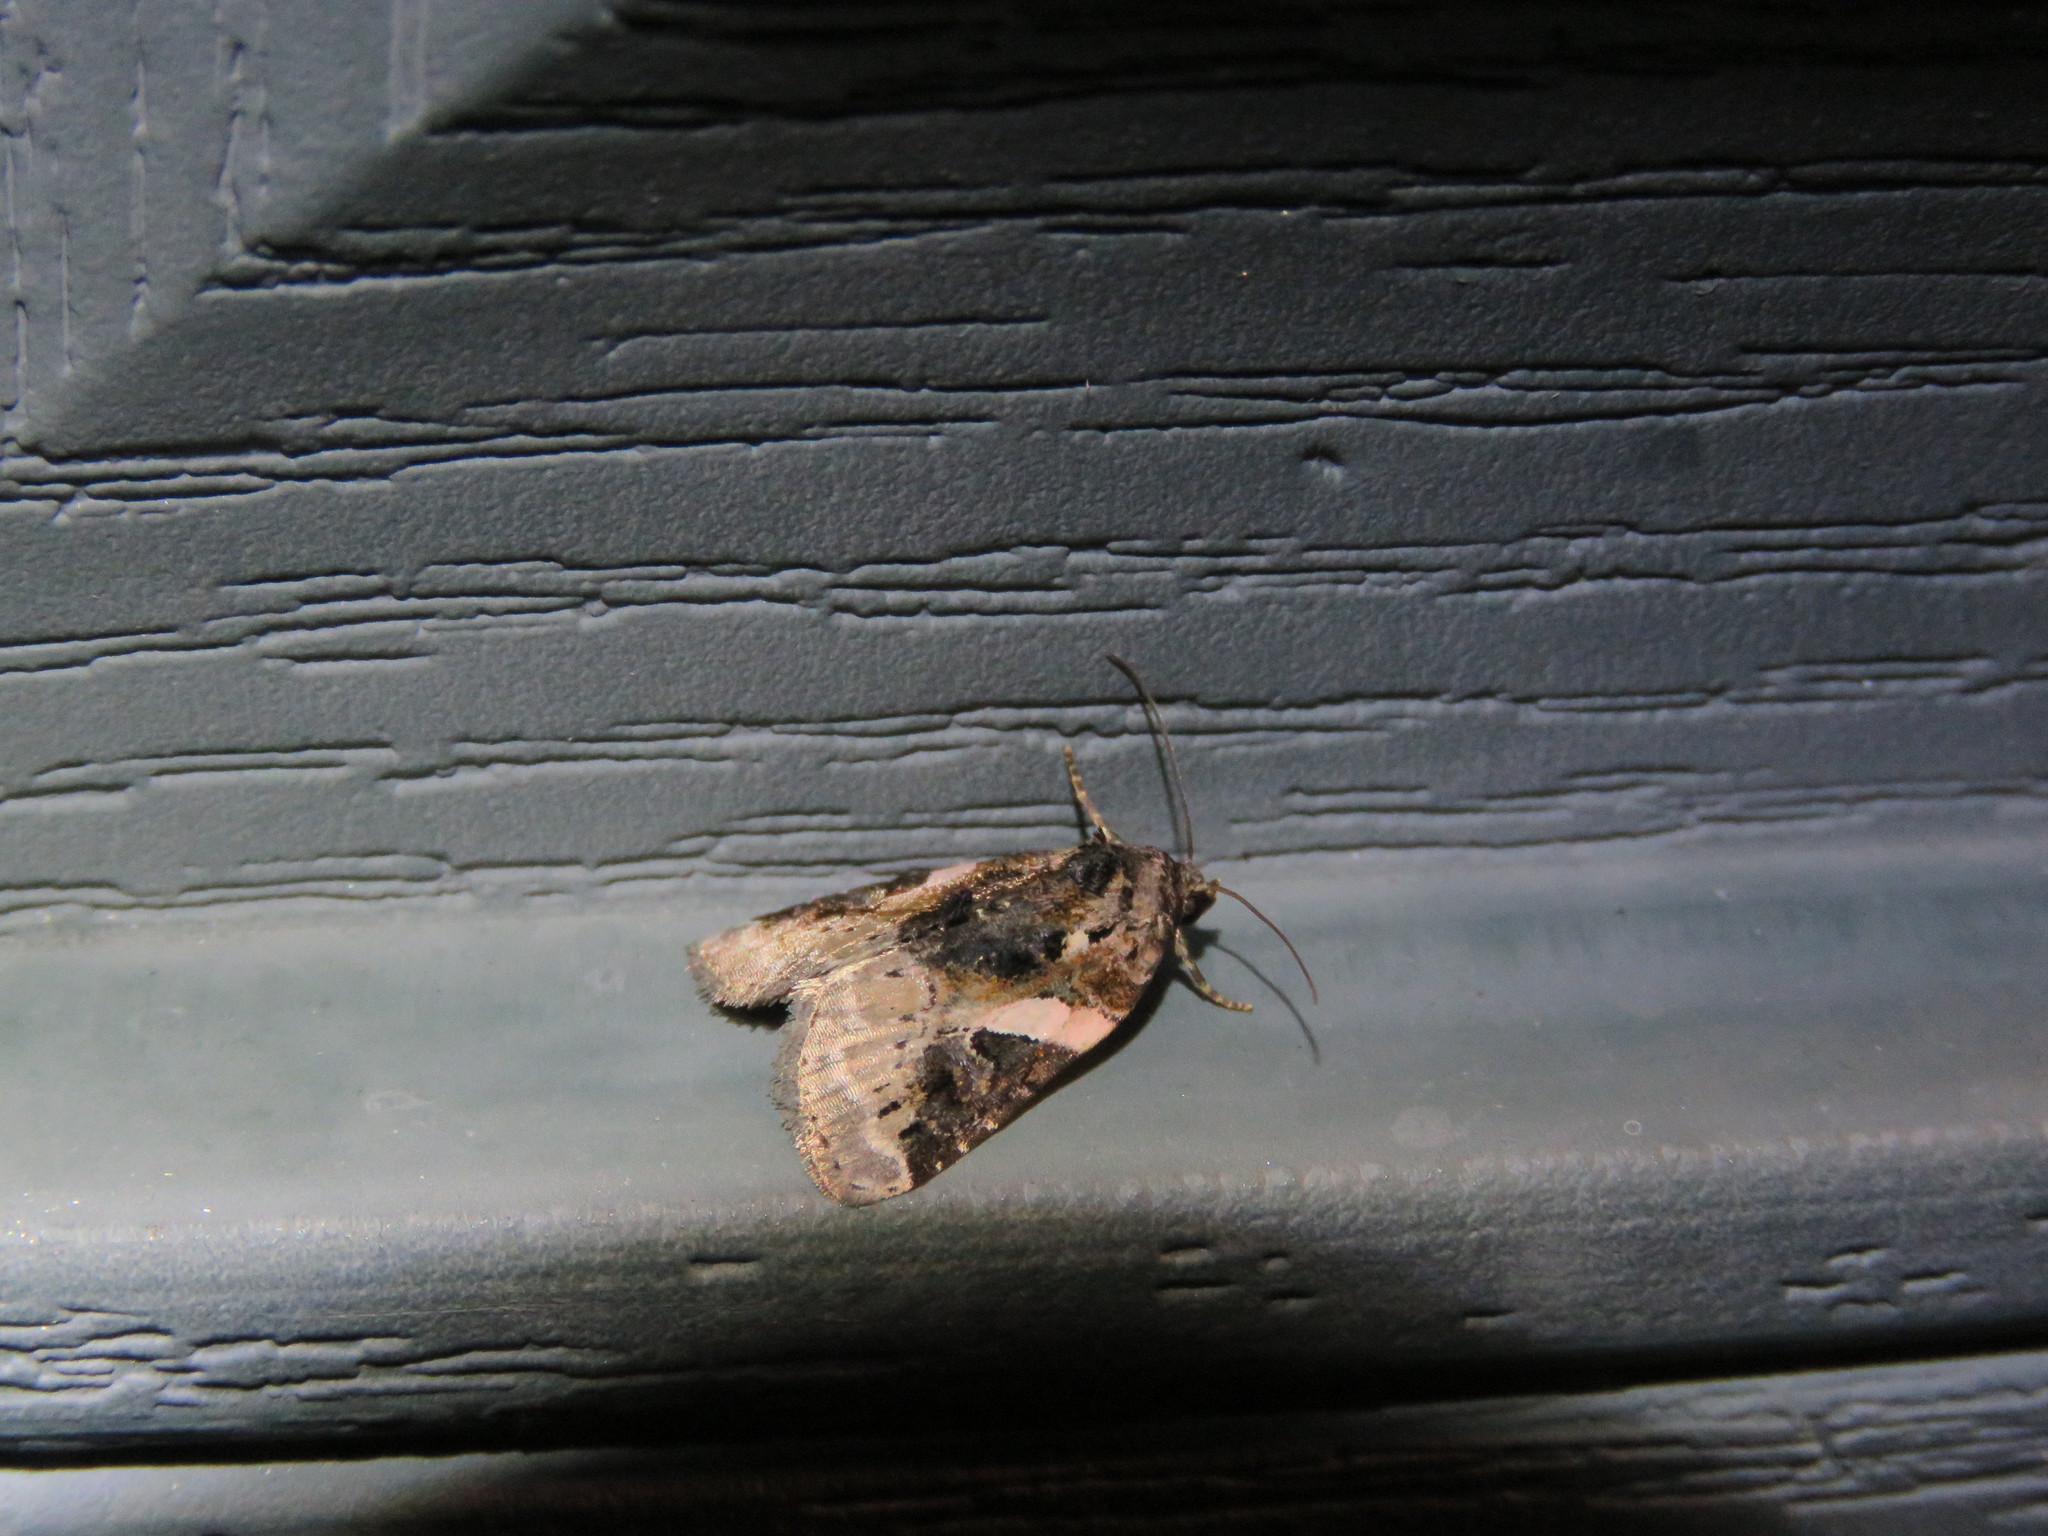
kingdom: Animalia
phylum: Arthropoda
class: Insecta
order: Lepidoptera
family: Noctuidae
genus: Pseudeustrotia
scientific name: Pseudeustrotia carneola
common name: Pink-barred lithacodia moth
